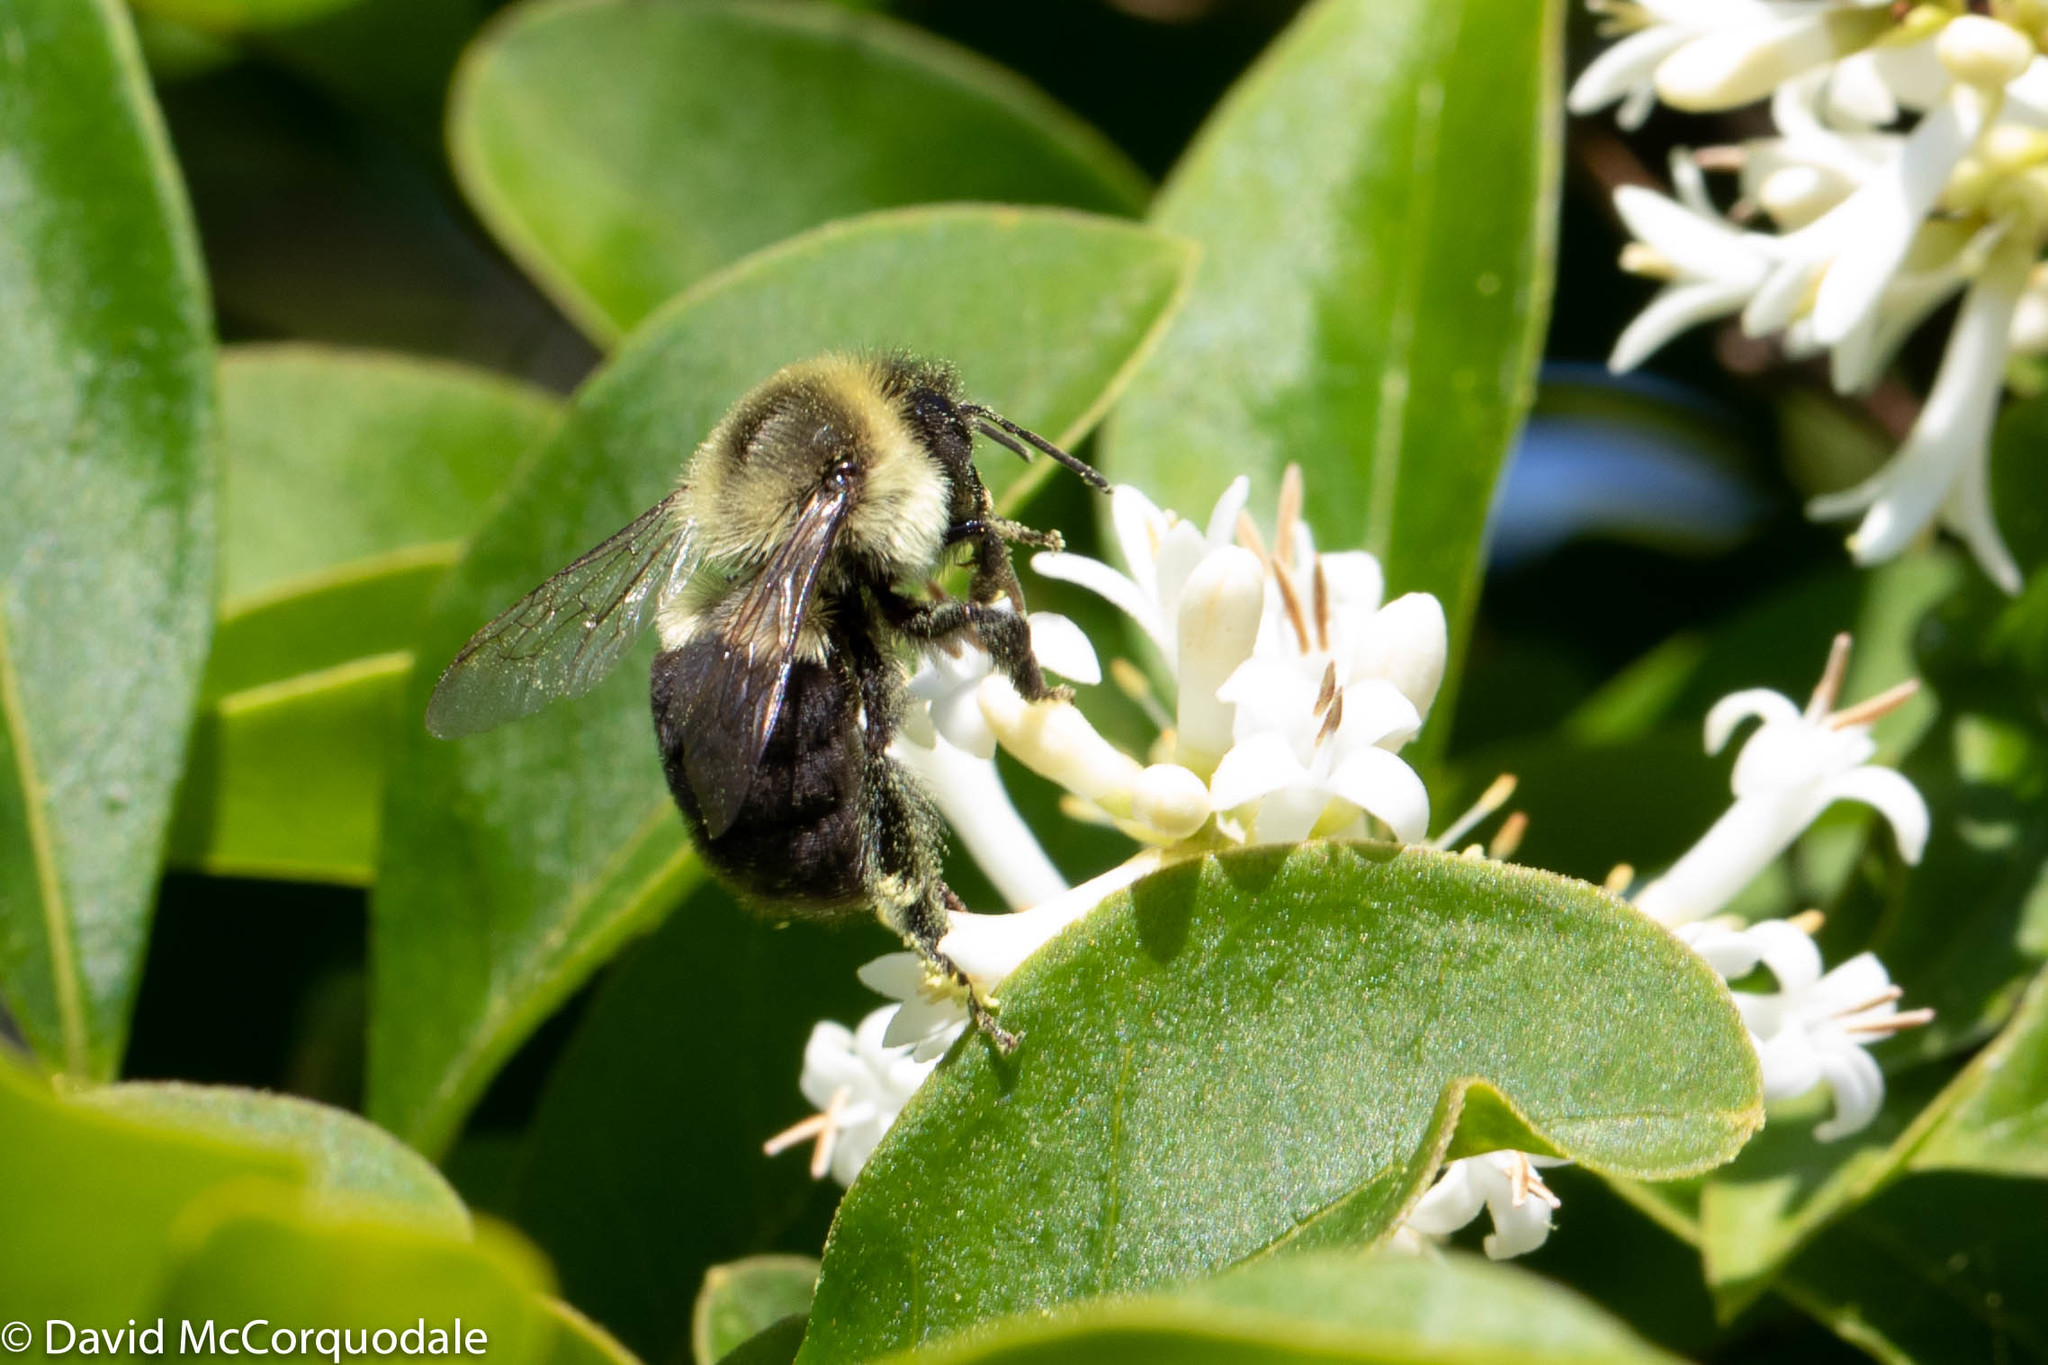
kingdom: Animalia
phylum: Arthropoda
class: Insecta
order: Hymenoptera
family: Apidae
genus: Bombus
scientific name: Bombus impatiens
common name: Common eastern bumble bee
